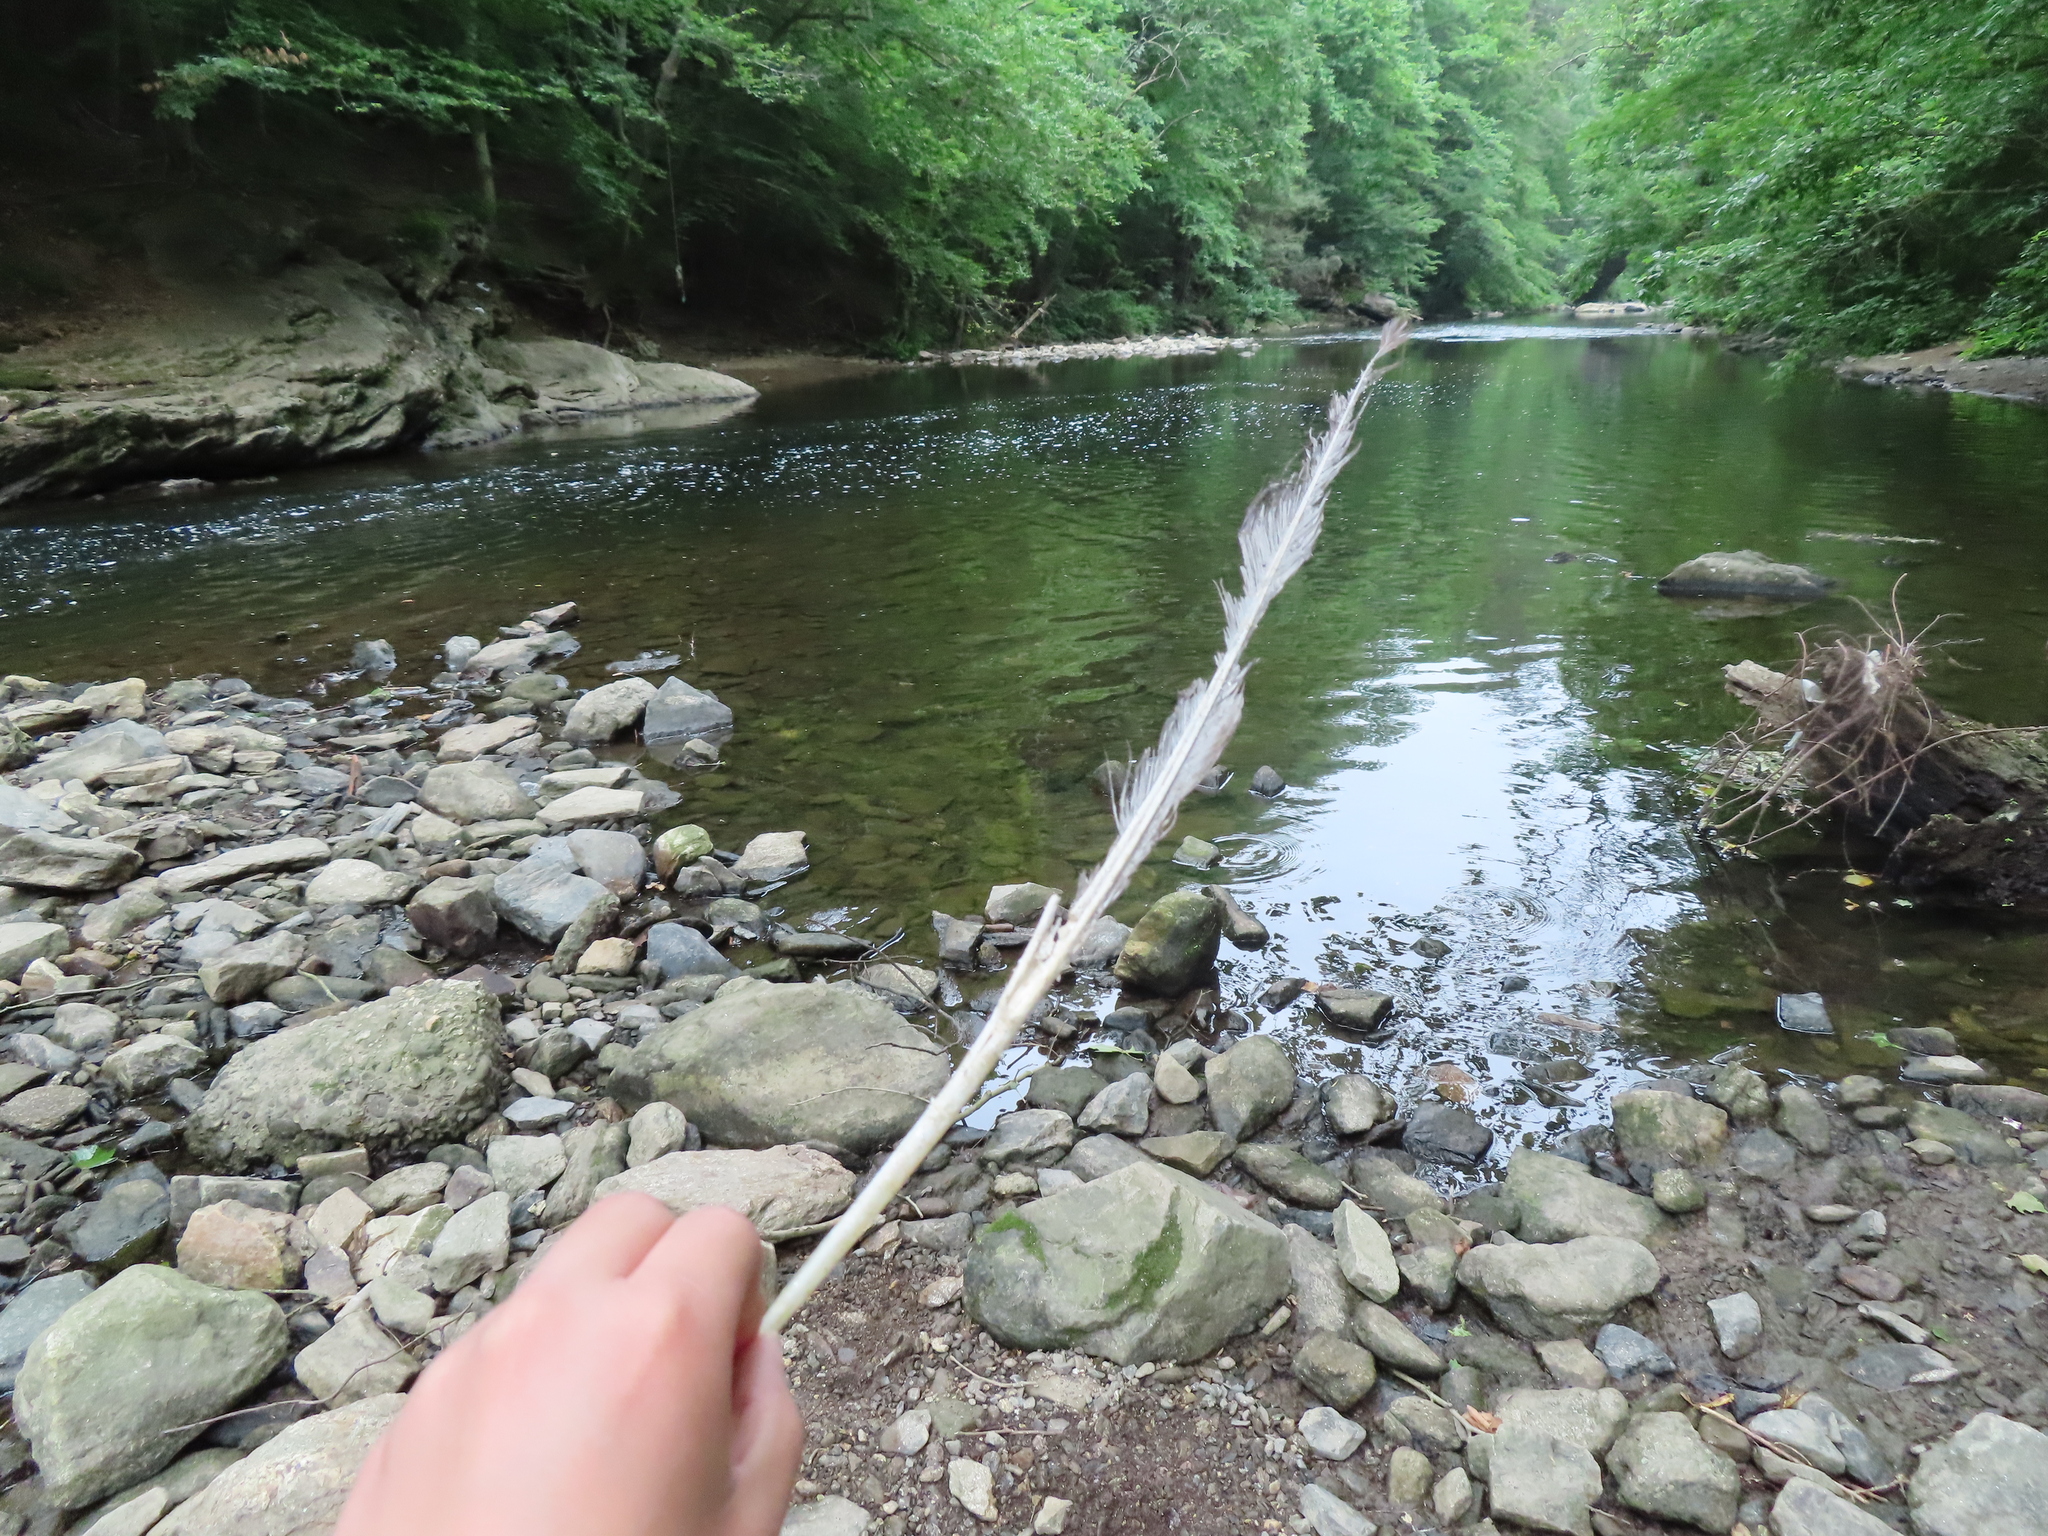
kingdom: Animalia
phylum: Chordata
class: Aves
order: Anseriformes
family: Anatidae
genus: Branta
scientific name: Branta canadensis
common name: Canada goose
